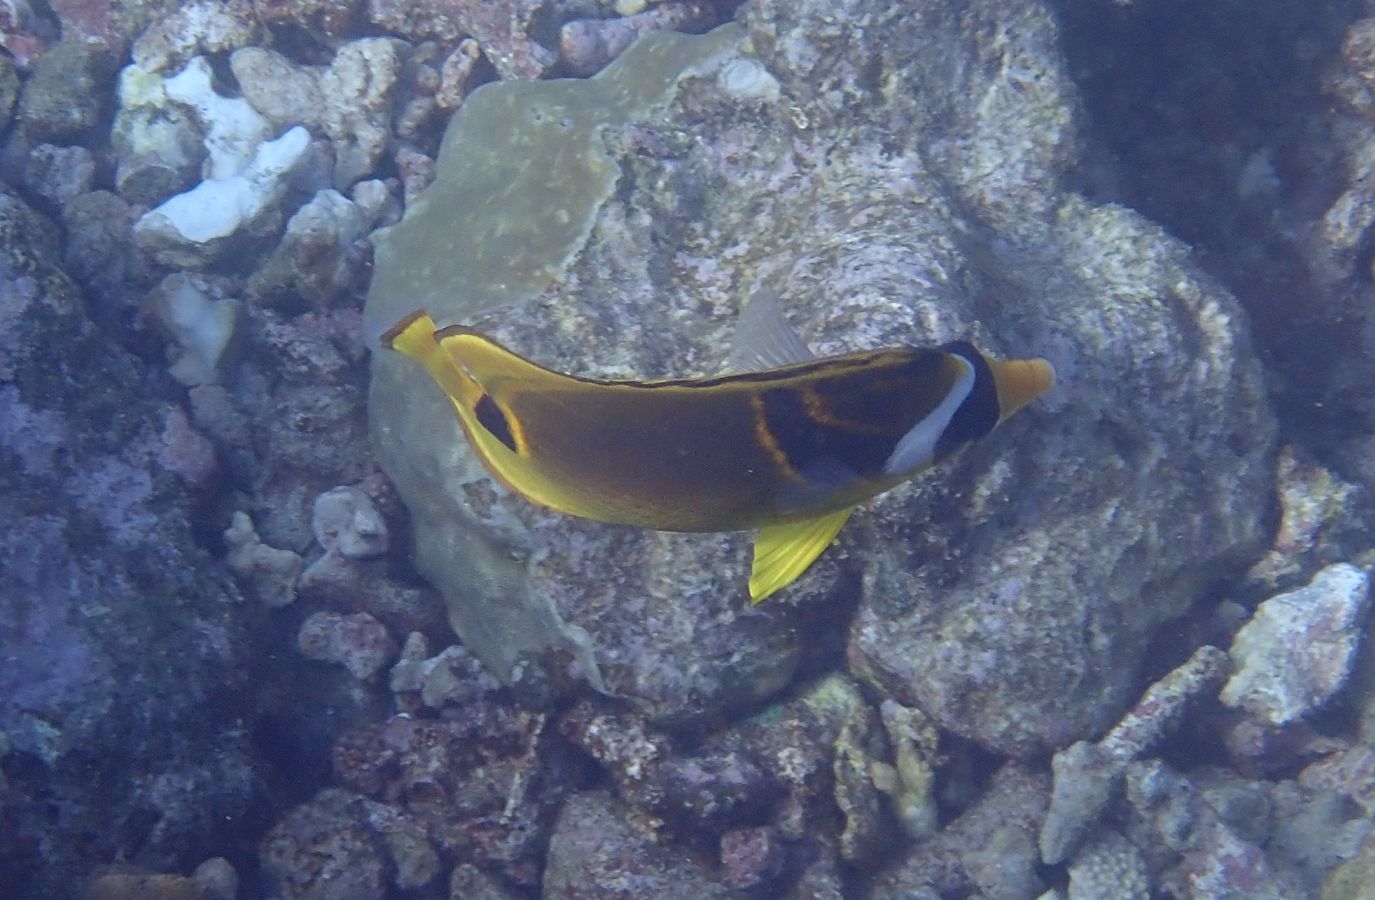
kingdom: Animalia
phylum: Chordata
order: Perciformes
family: Chaetodontidae
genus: Chaetodon
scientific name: Chaetodon lunula
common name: Raccoon butterflyfish
